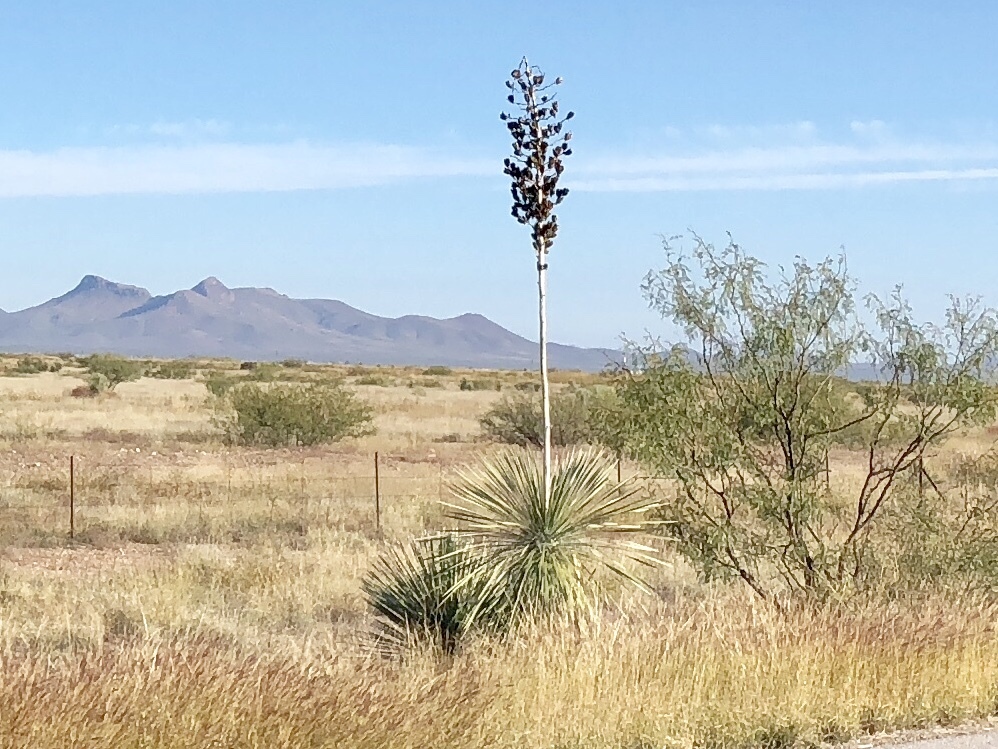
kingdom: Plantae
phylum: Tracheophyta
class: Liliopsida
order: Asparagales
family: Asparagaceae
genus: Yucca
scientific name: Yucca elata
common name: Palmella
